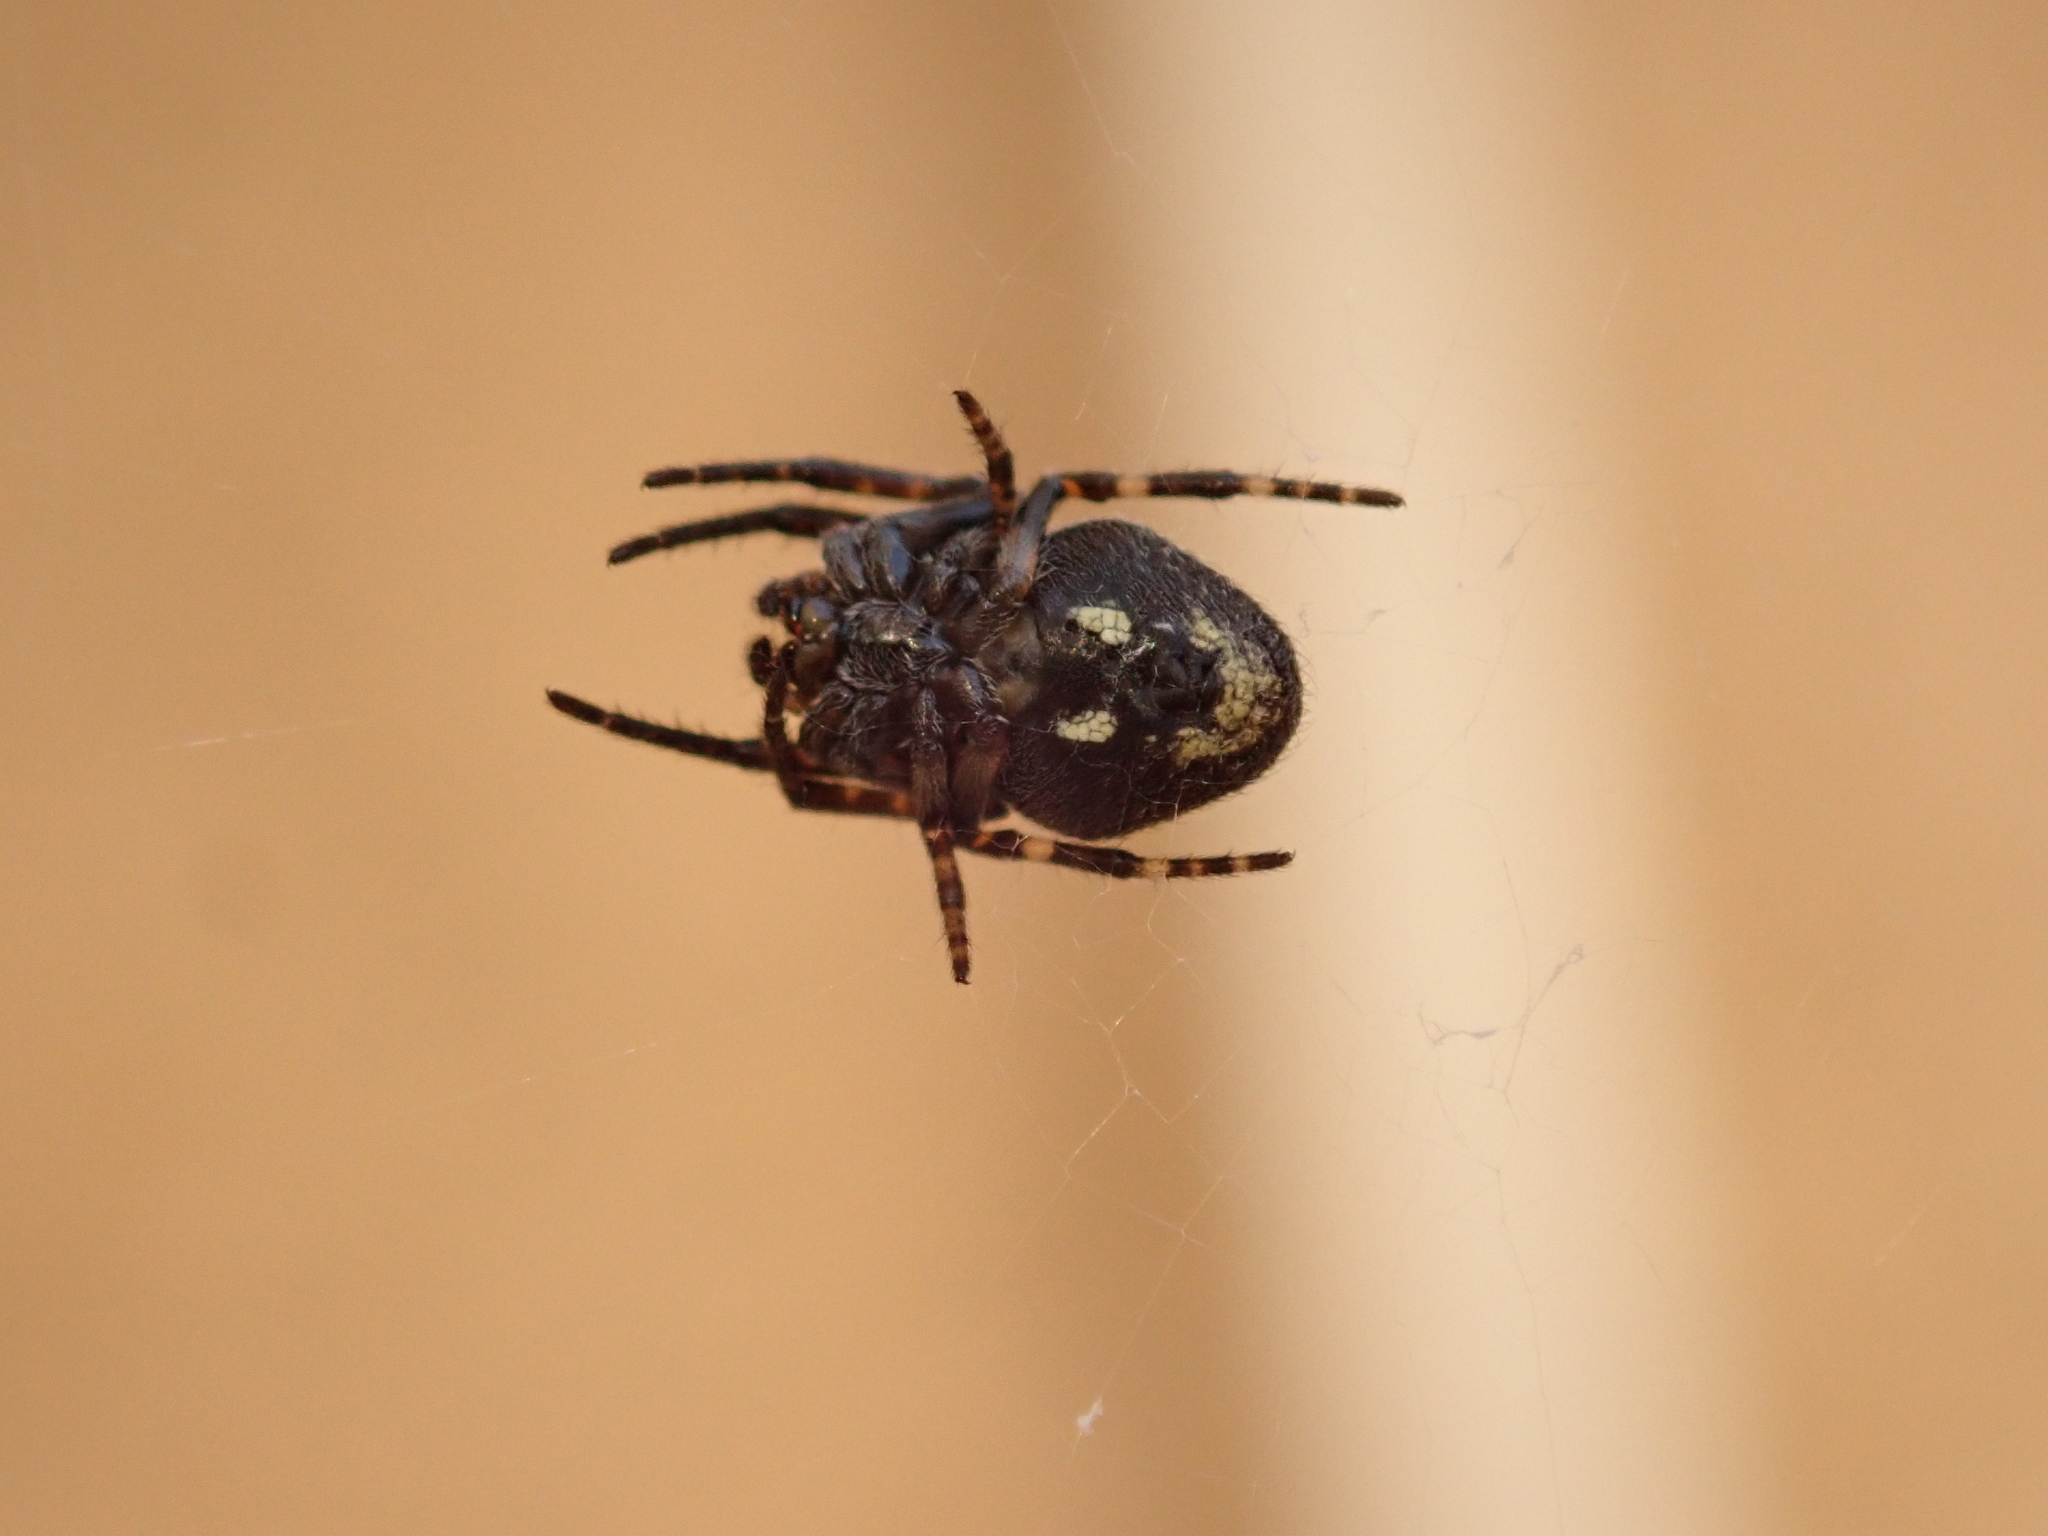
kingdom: Animalia
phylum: Arthropoda
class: Arachnida
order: Araneae
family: Araneidae
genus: Nuctenea
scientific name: Nuctenea umbratica
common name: Toad spider
